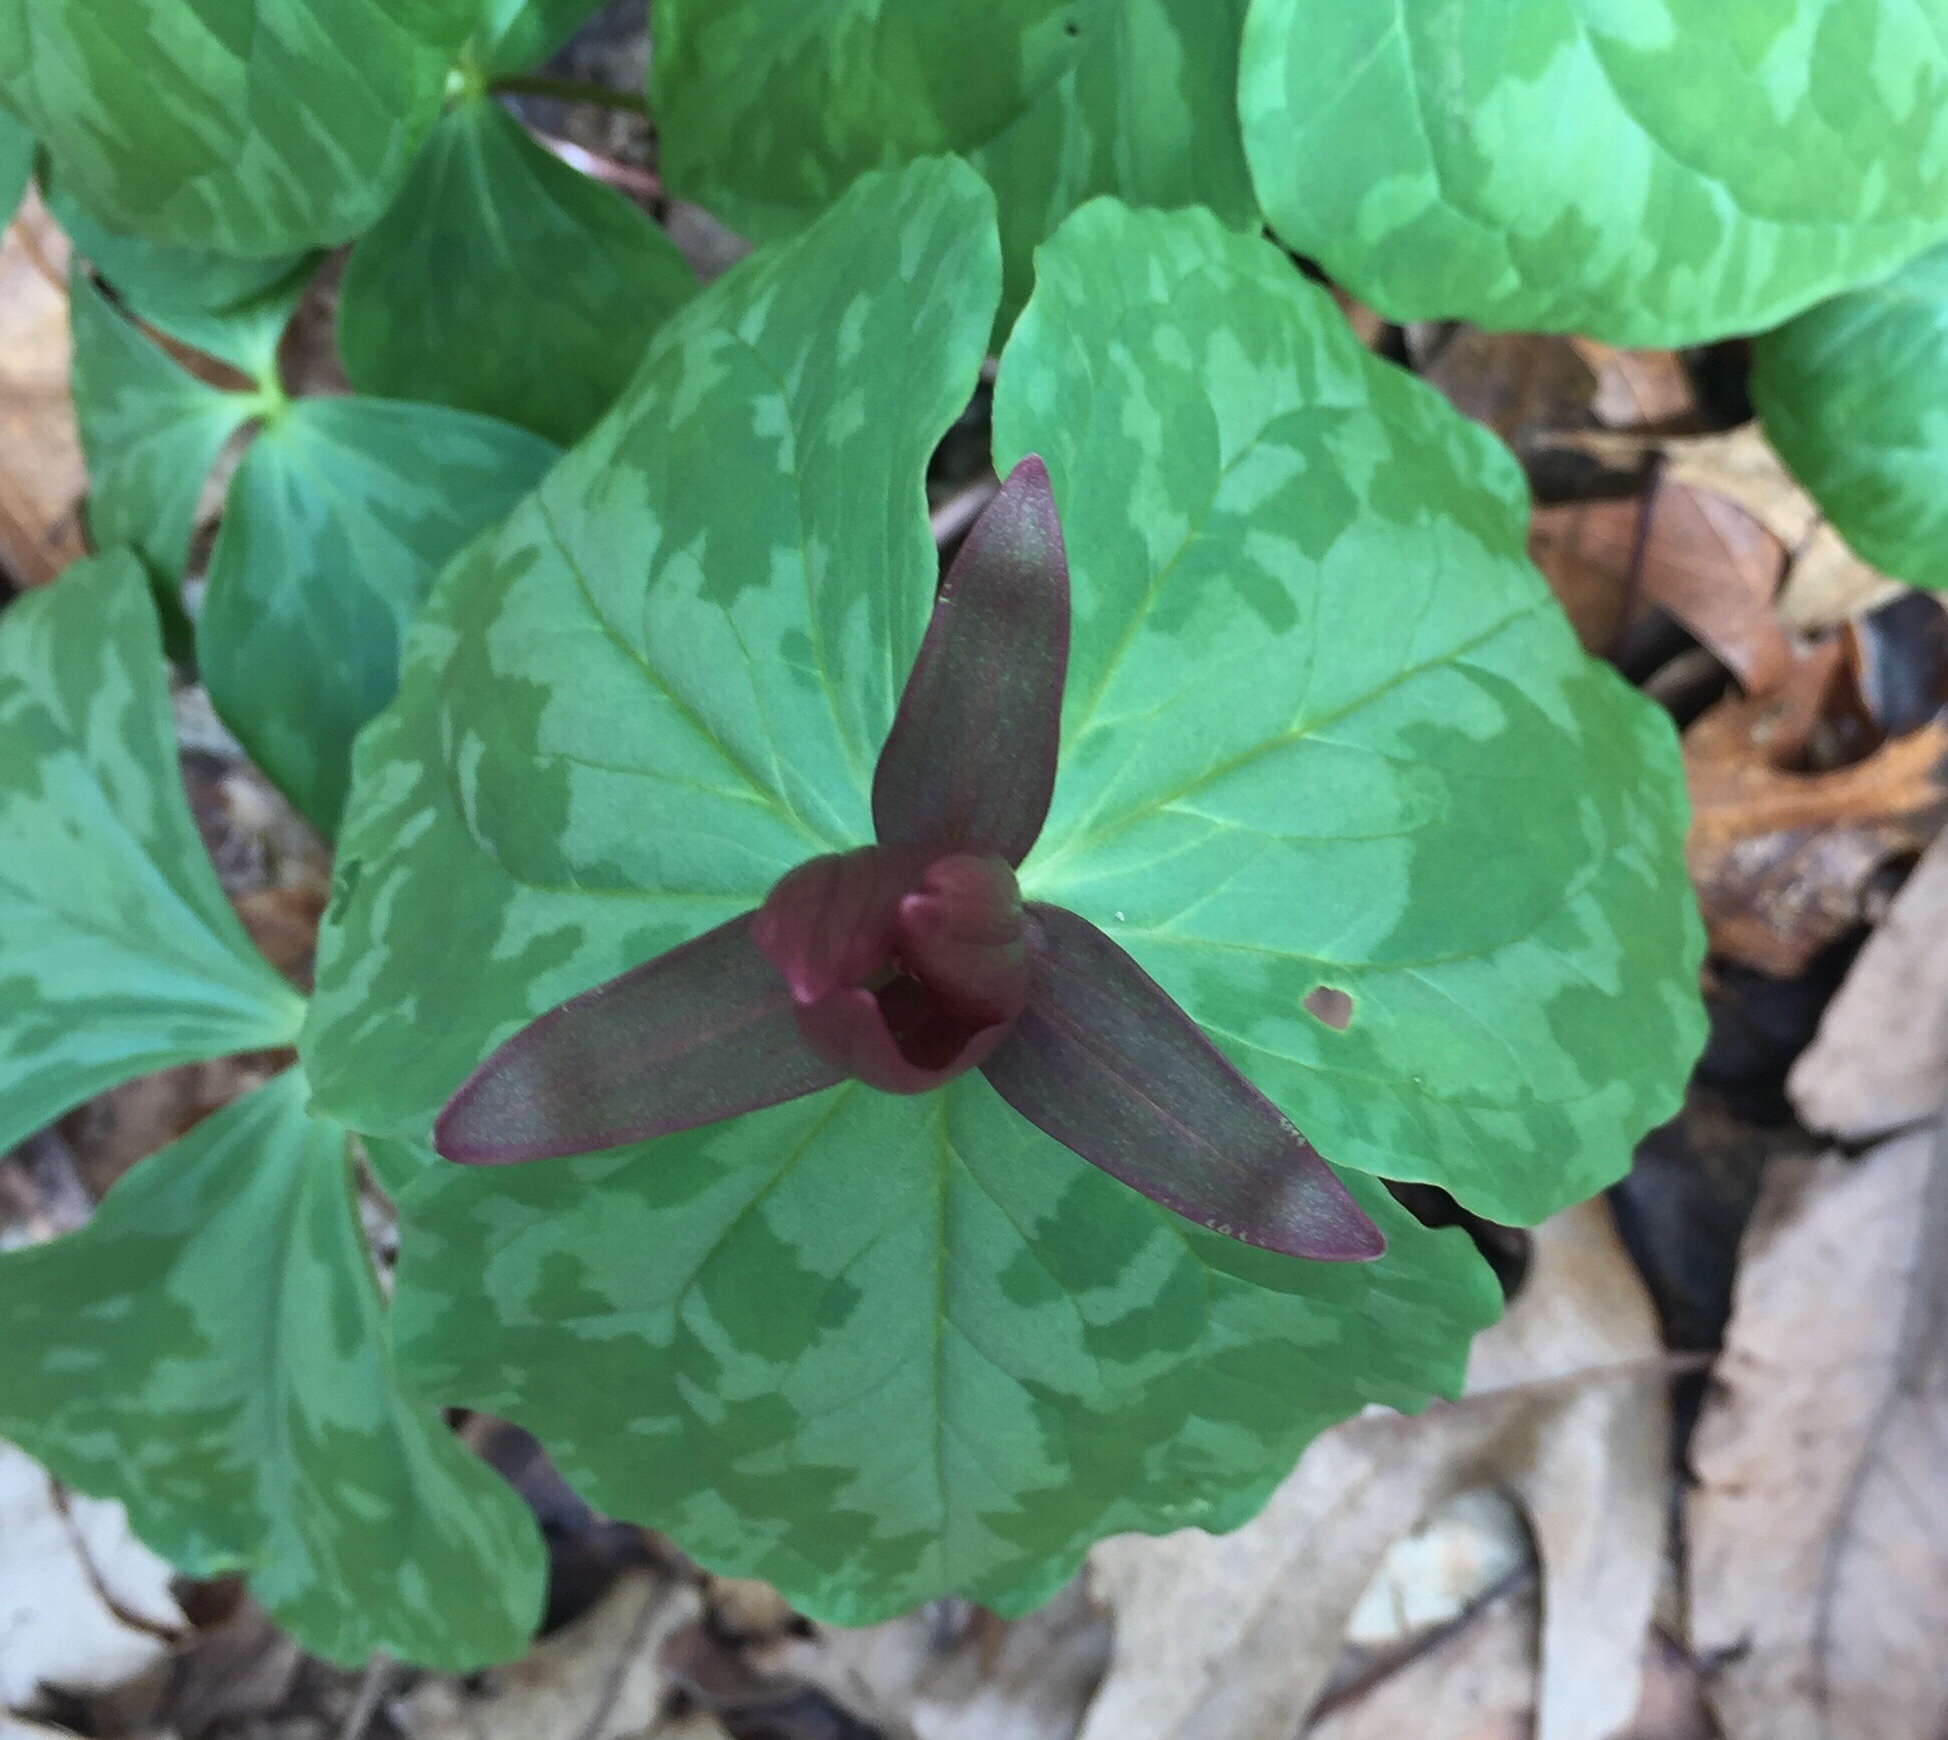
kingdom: Plantae
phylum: Tracheophyta
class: Liliopsida
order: Liliales
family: Melanthiaceae
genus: Trillium
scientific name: Trillium cuneatum
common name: Cuneate trillium
